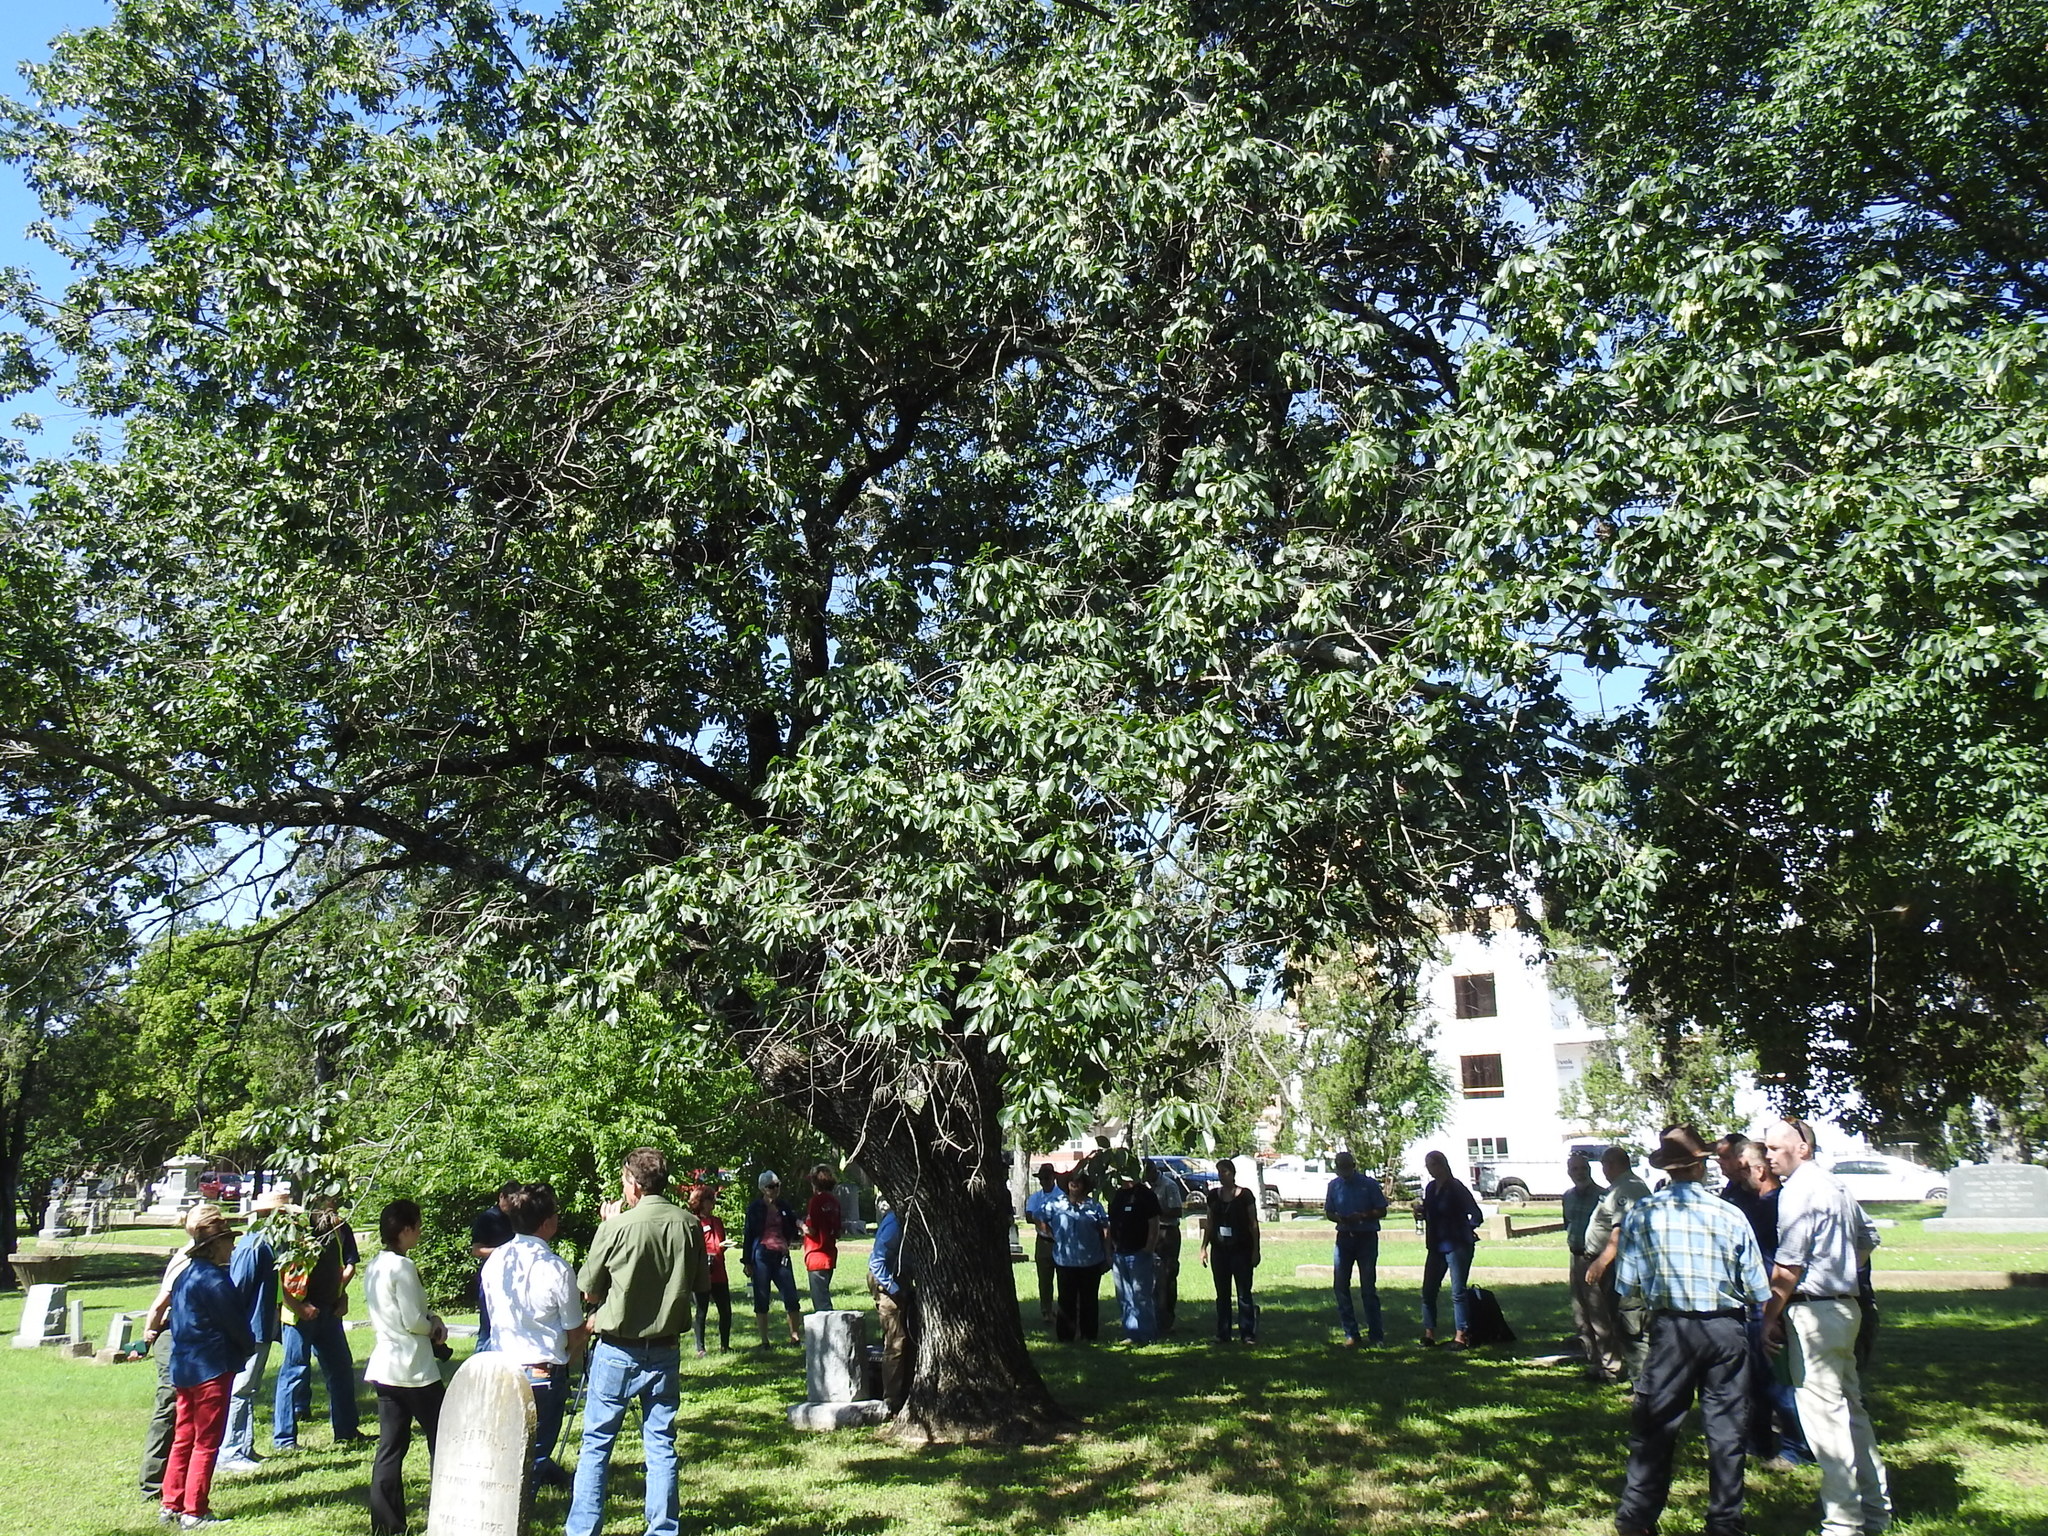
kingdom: Plantae
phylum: Tracheophyta
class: Magnoliopsida
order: Lamiales
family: Oleaceae
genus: Fraxinus
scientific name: Fraxinus pennsylvanica
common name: Green ash
